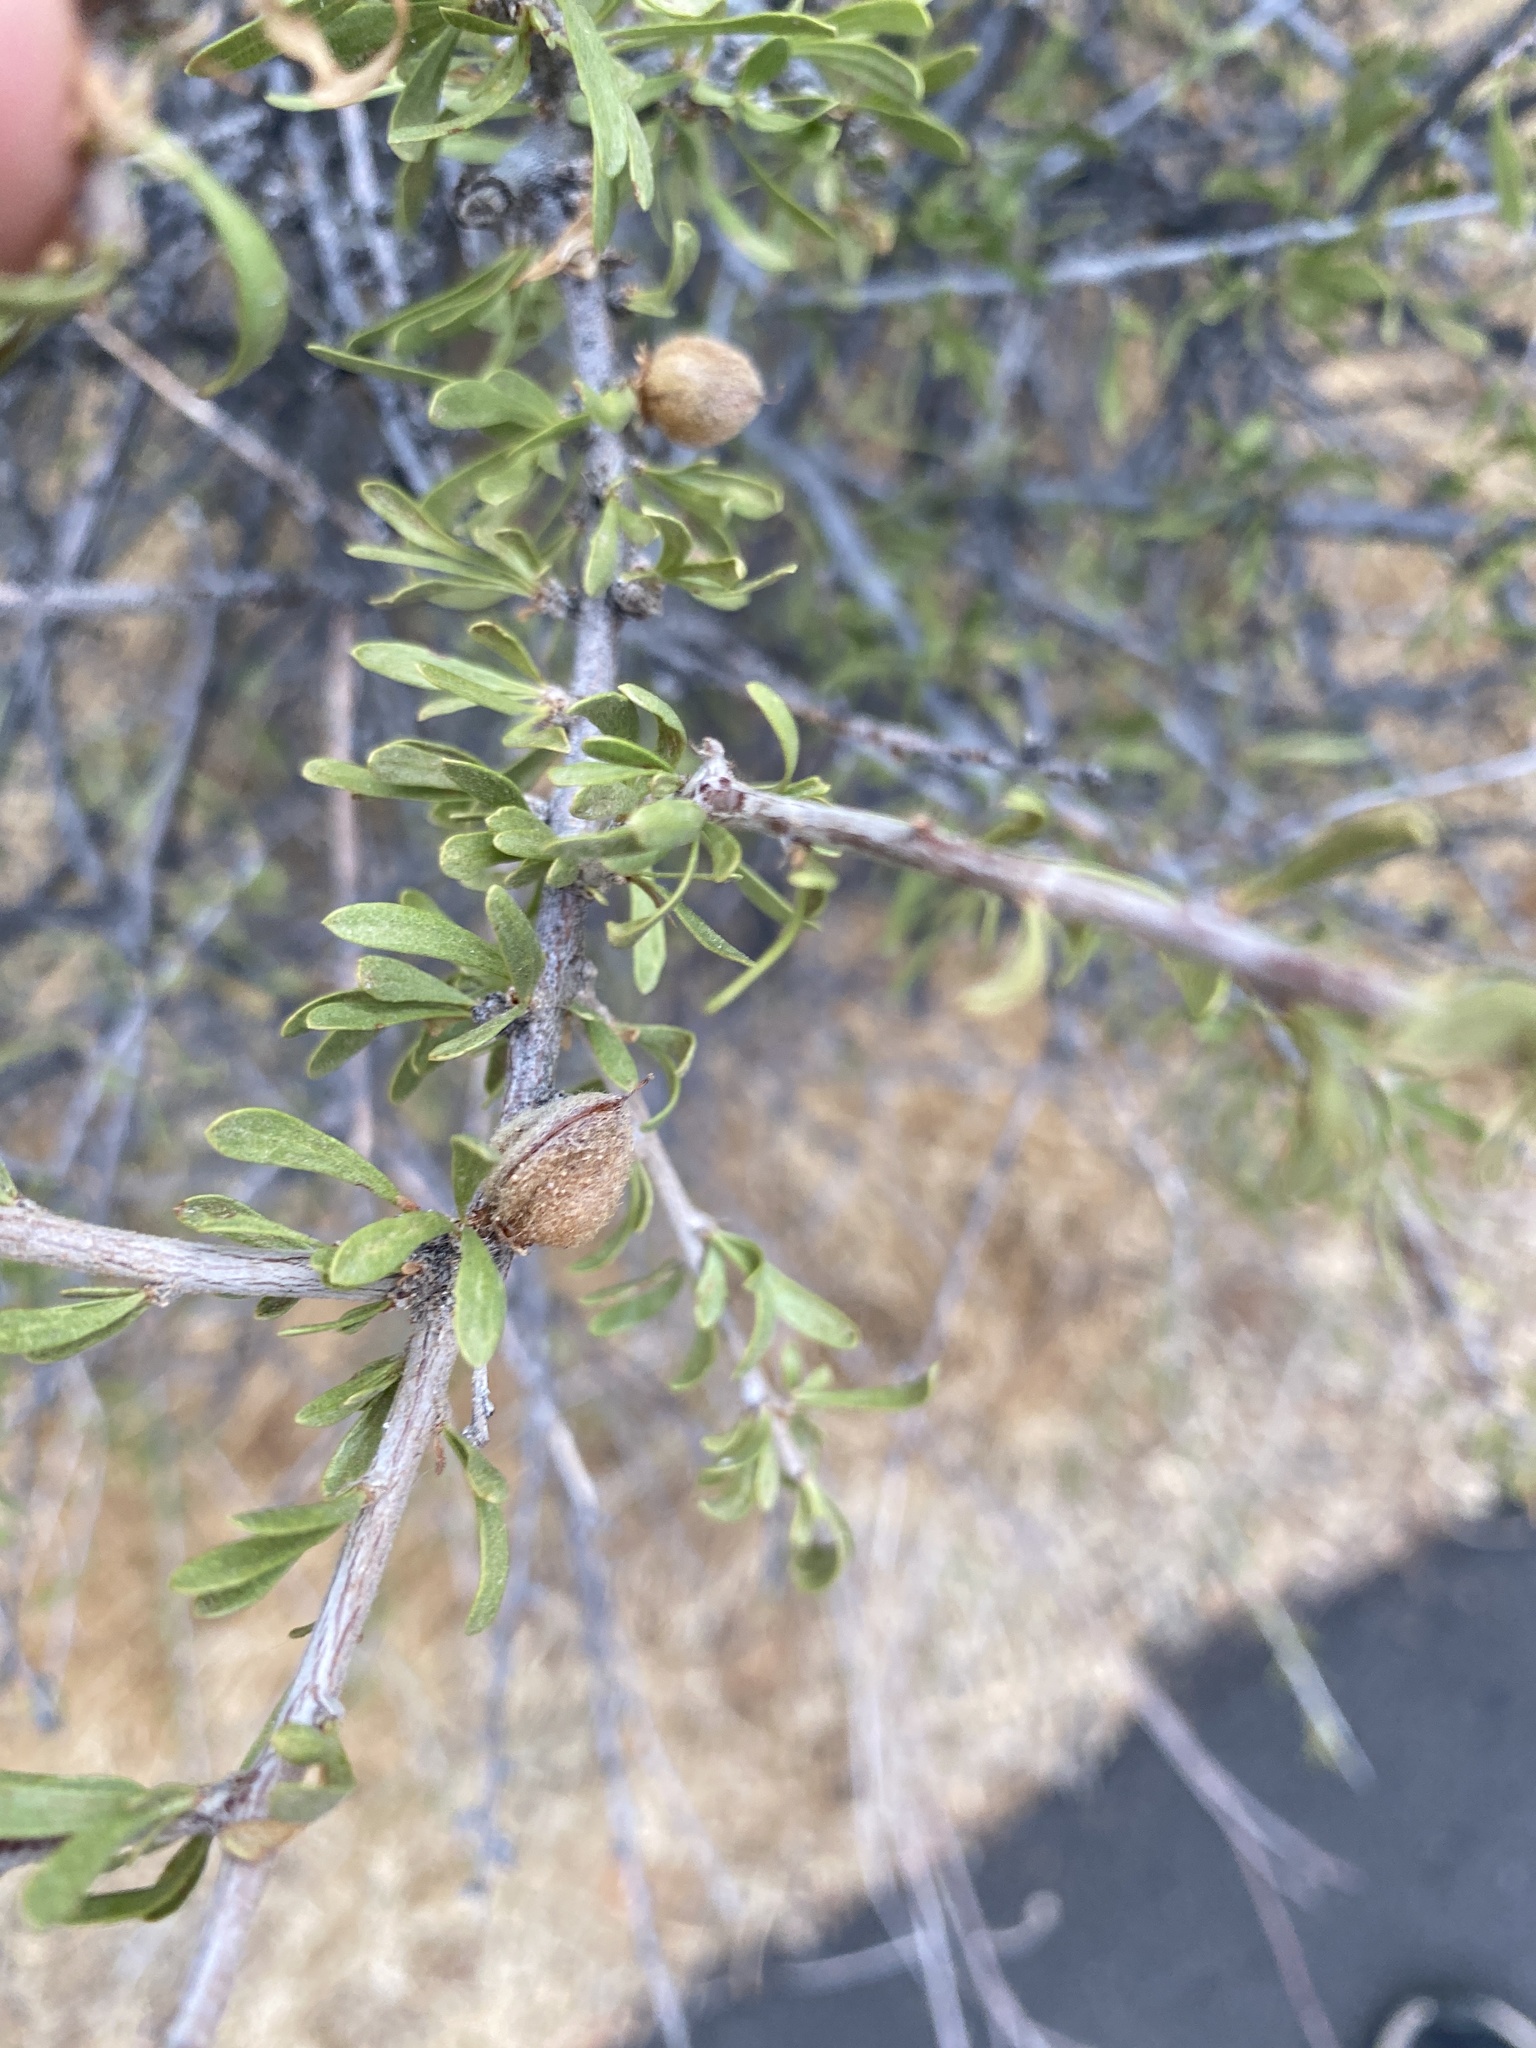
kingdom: Plantae
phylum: Tracheophyta
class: Magnoliopsida
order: Rosales
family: Rosaceae
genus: Prunus
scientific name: Prunus fasciculata
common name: Desert almond
